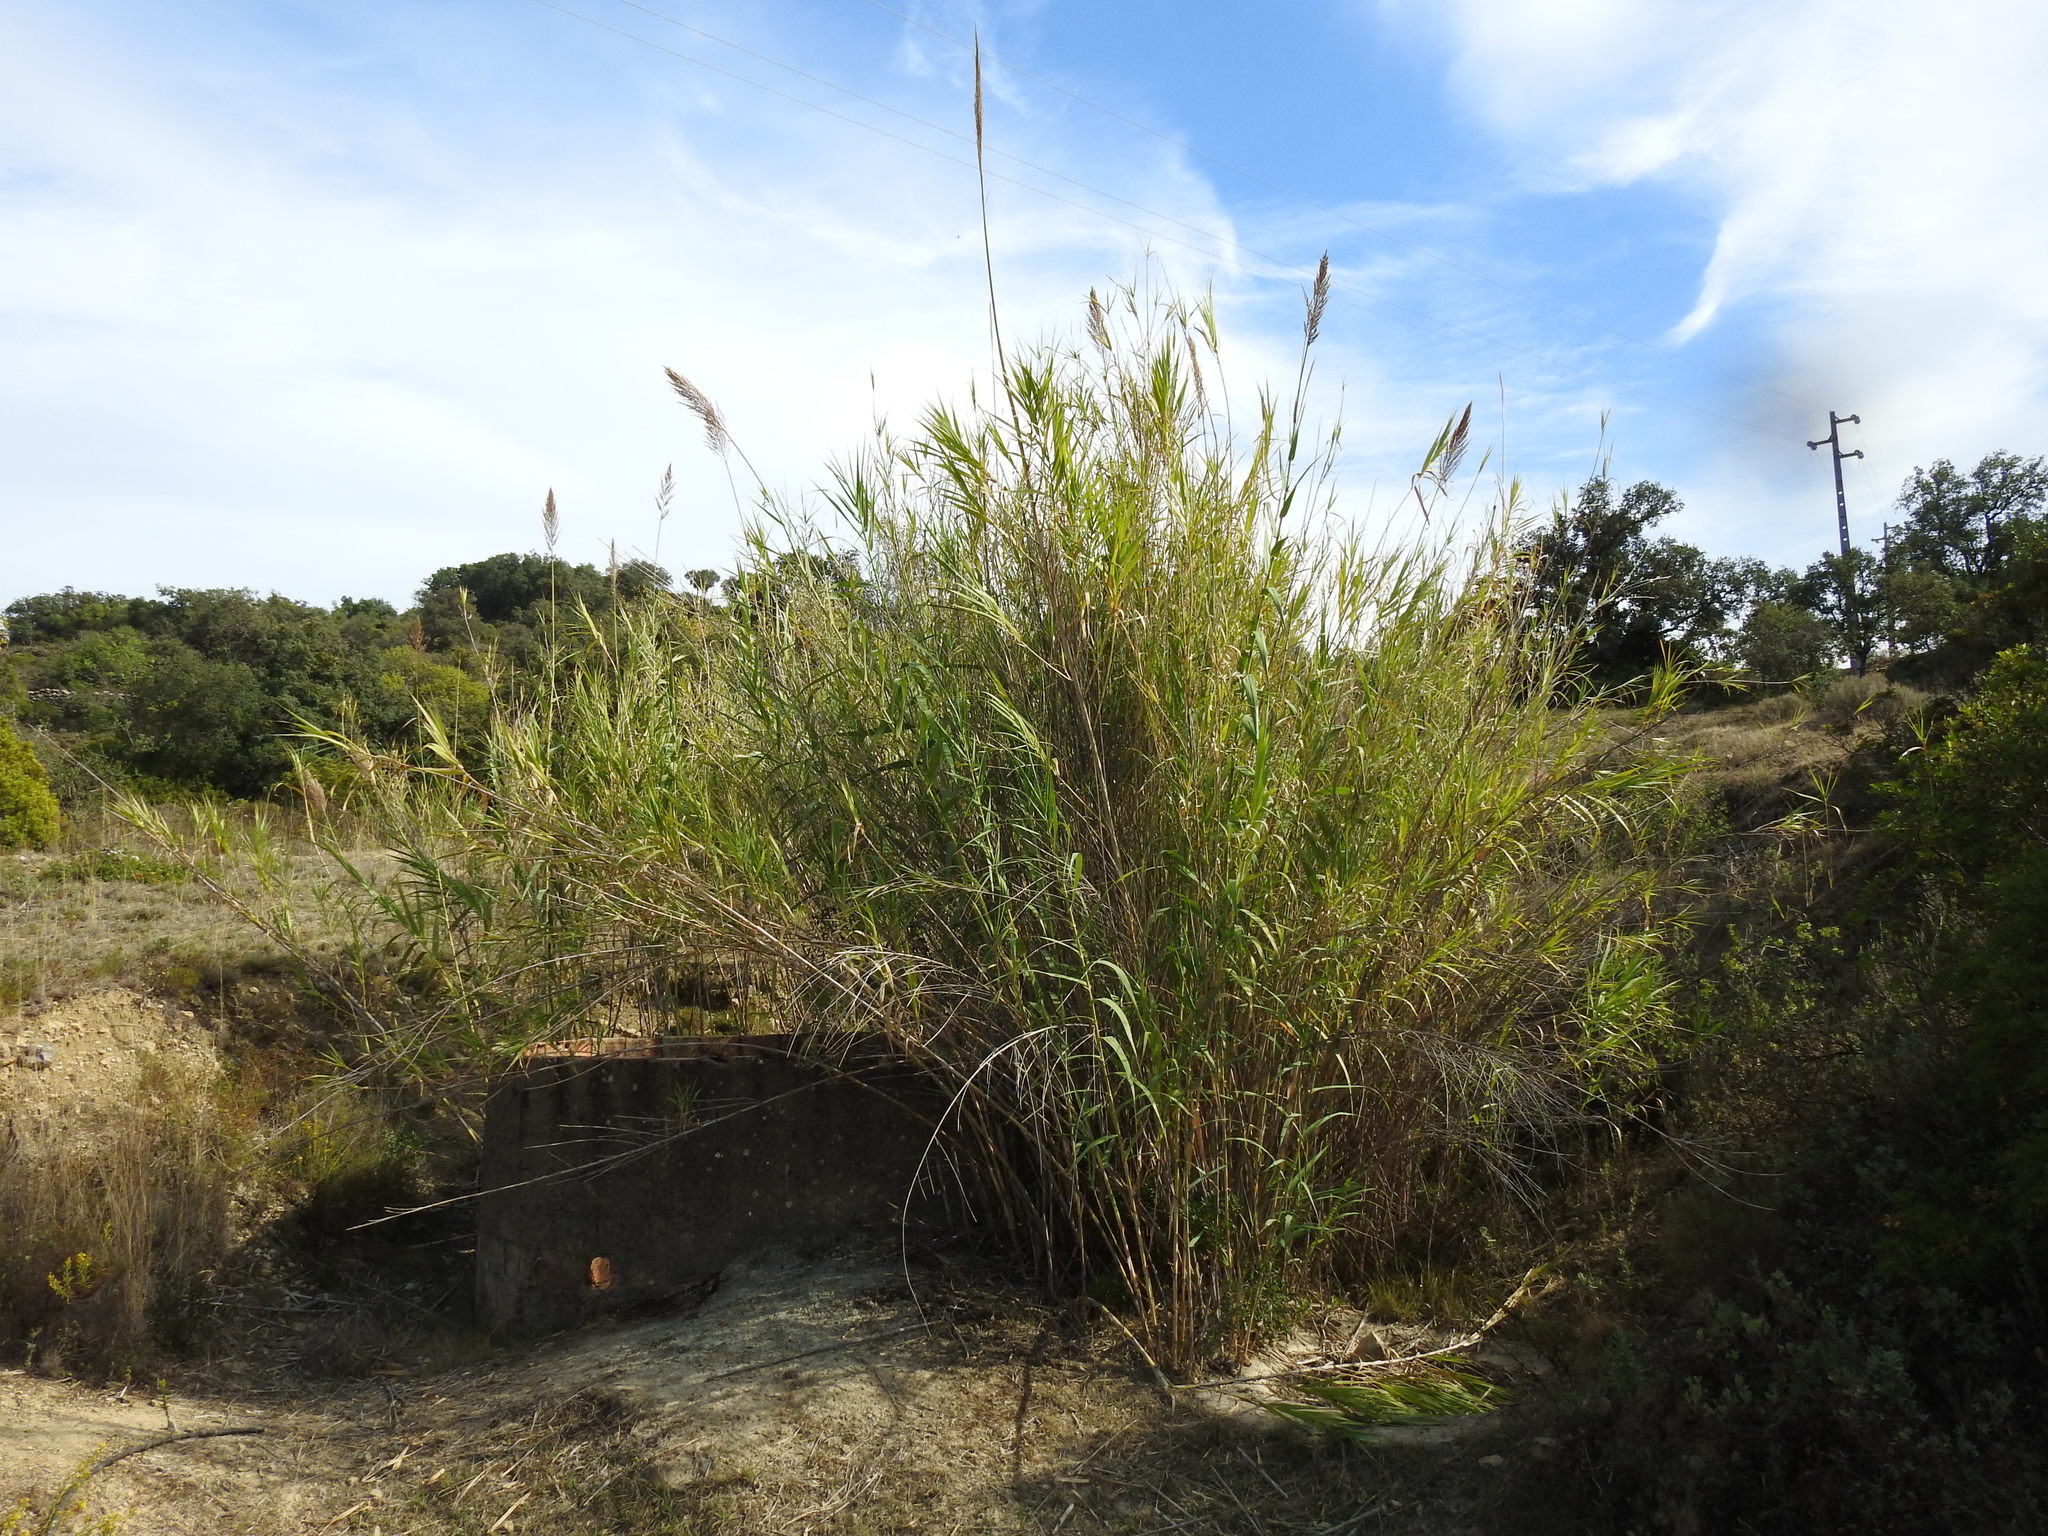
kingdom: Plantae
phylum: Tracheophyta
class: Liliopsida
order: Poales
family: Poaceae
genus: Arundo
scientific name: Arundo donax
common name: Giant reed
